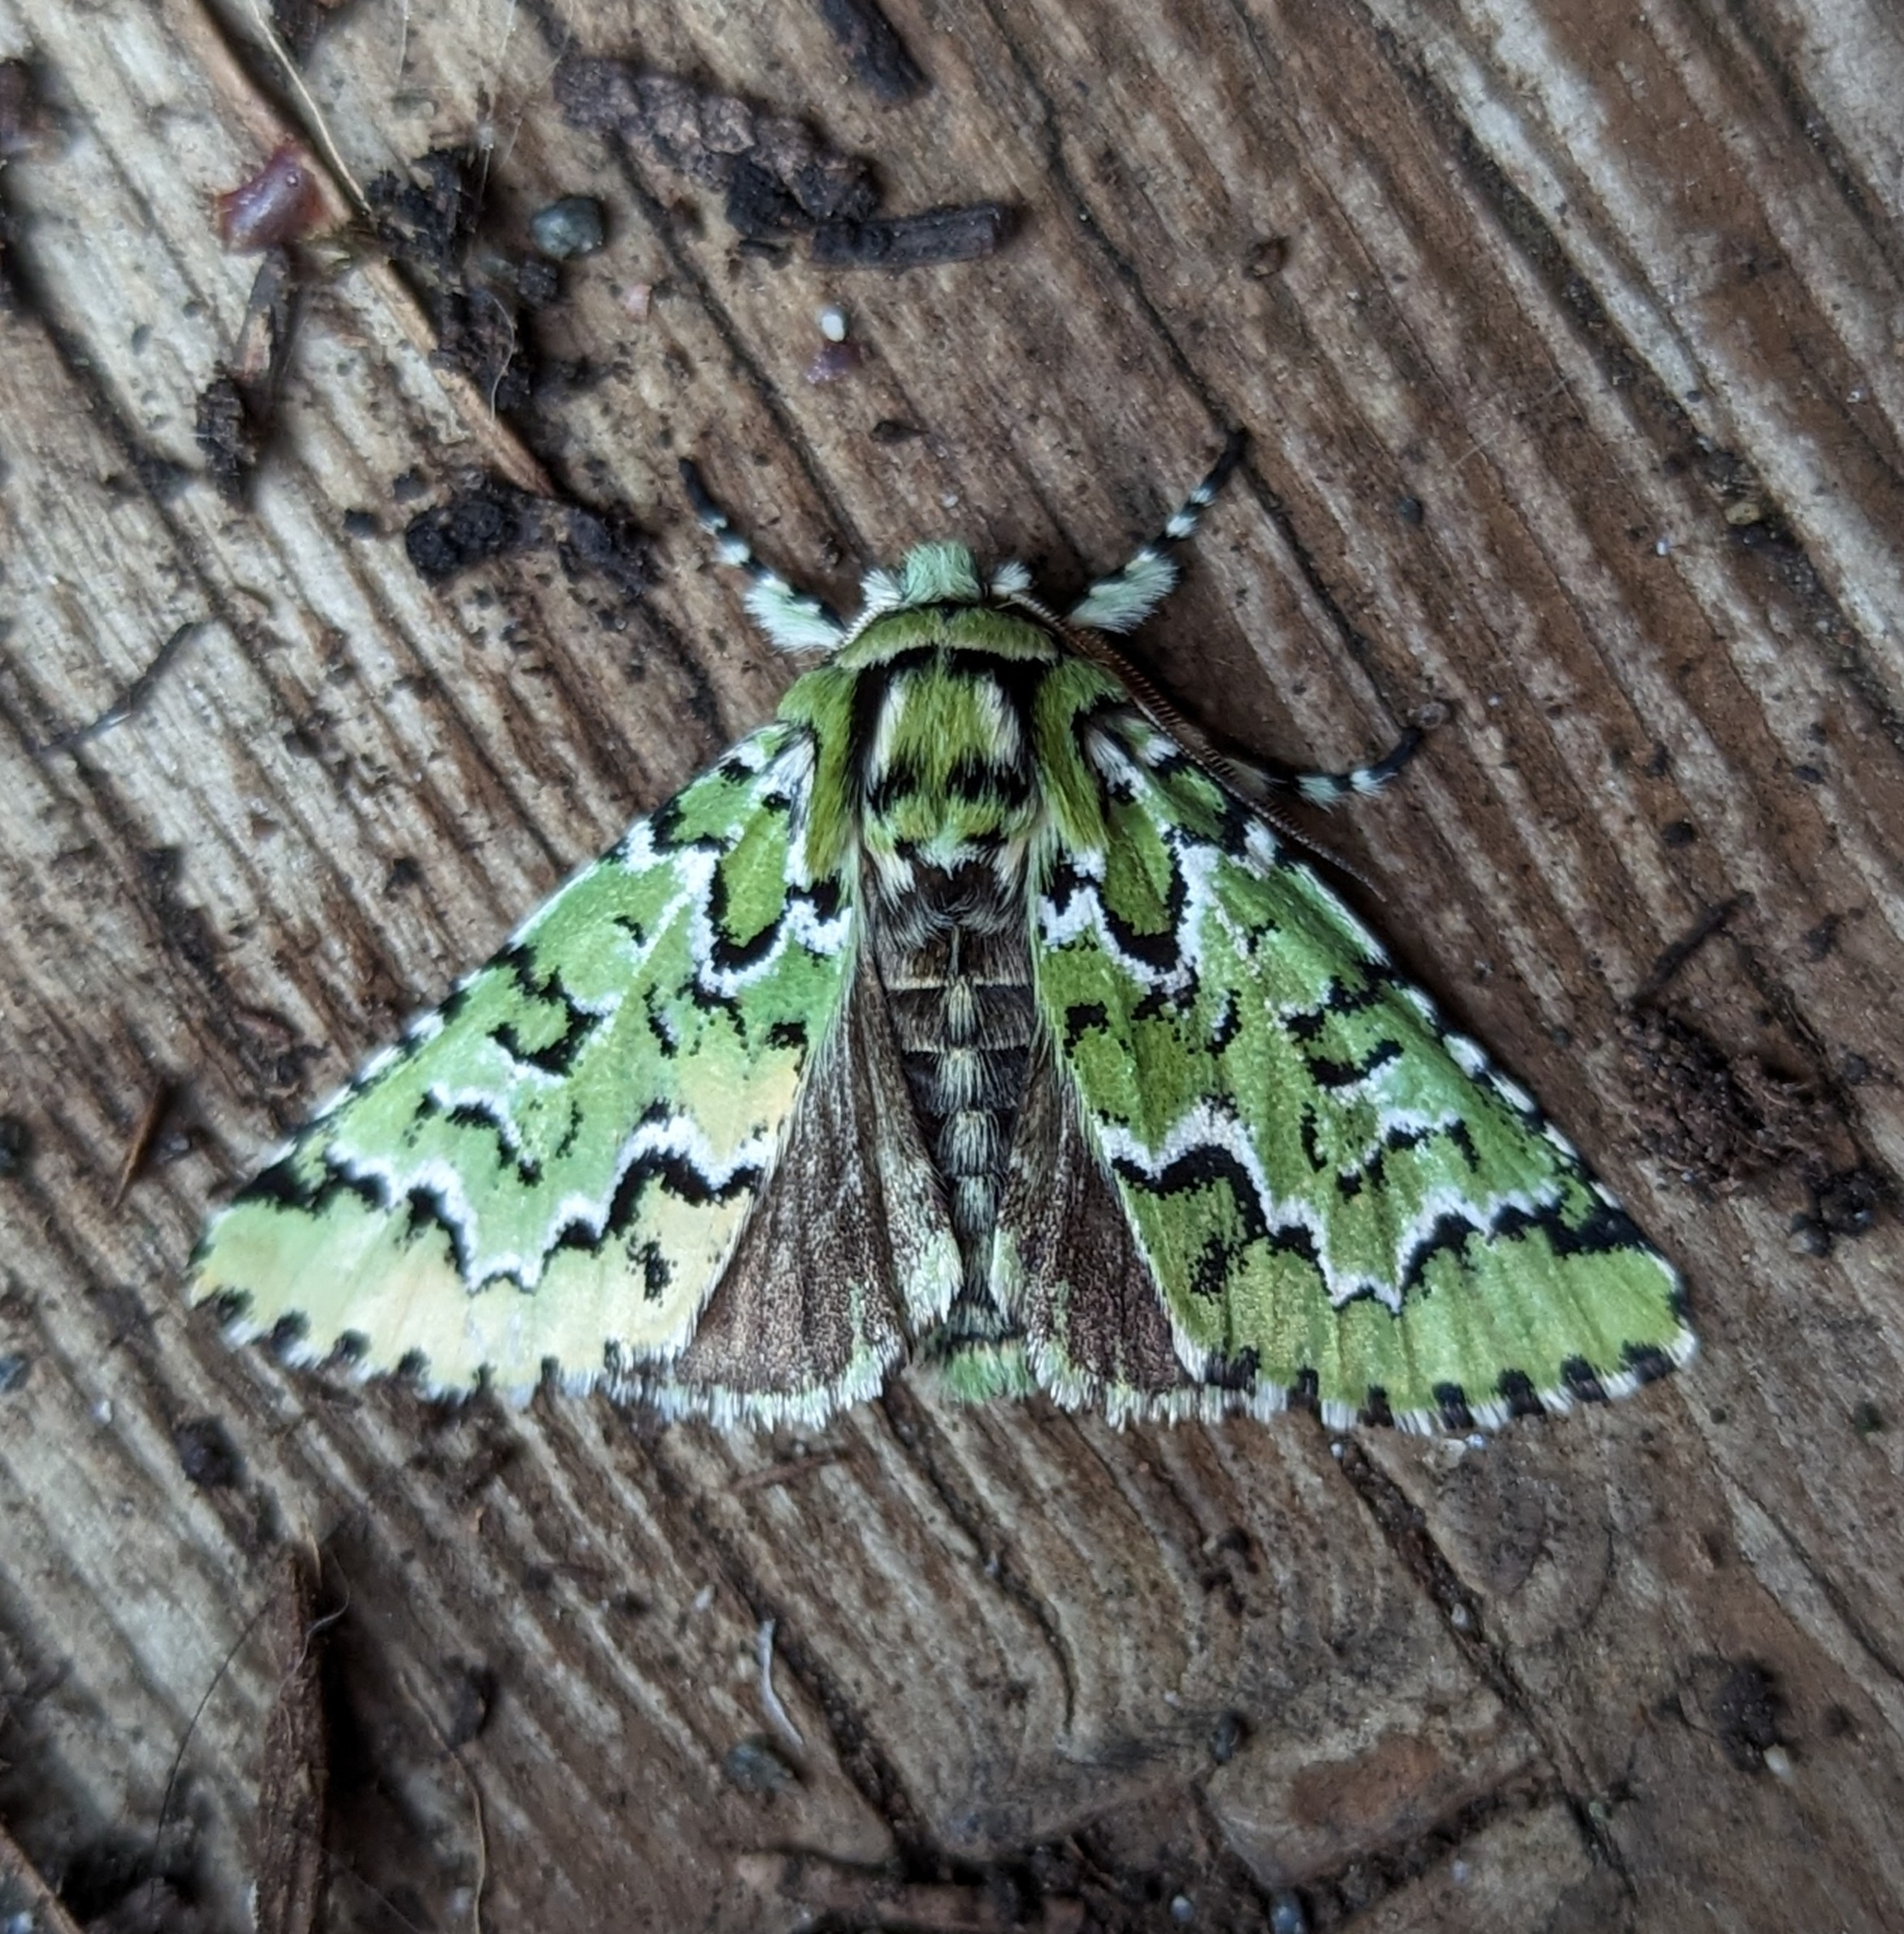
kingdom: Animalia
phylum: Arthropoda
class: Insecta
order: Lepidoptera
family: Noctuidae
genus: Feralia
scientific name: Feralia deceptiva
